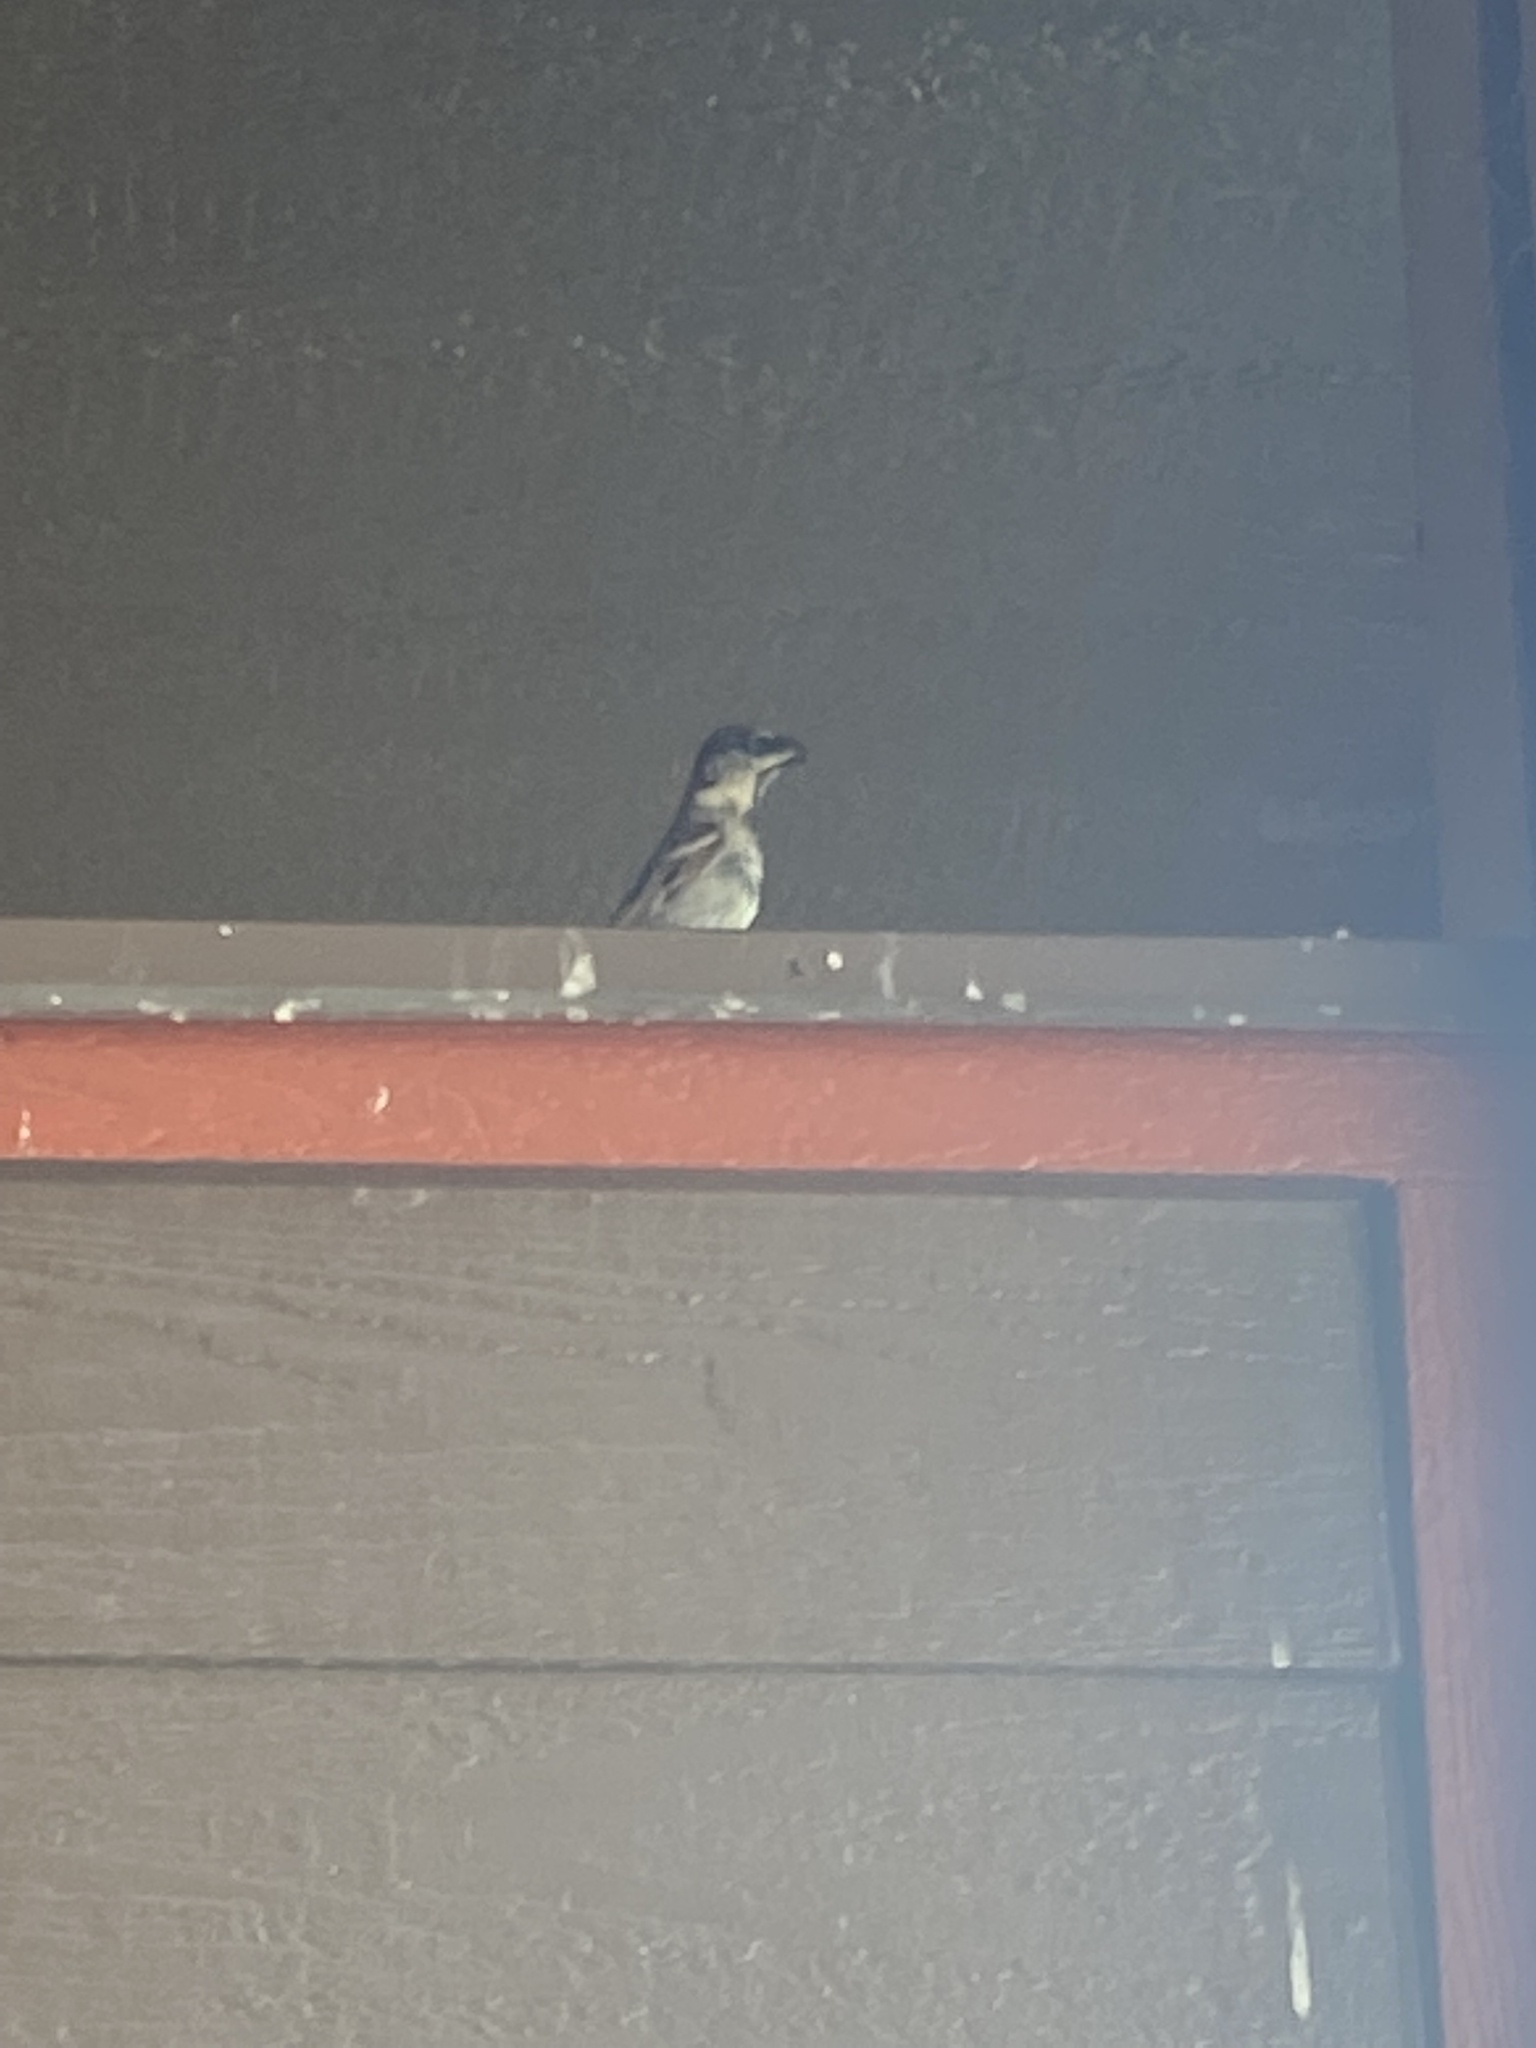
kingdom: Animalia
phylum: Chordata
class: Aves
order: Passeriformes
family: Passeridae
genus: Passer
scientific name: Passer domesticus
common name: House sparrow
